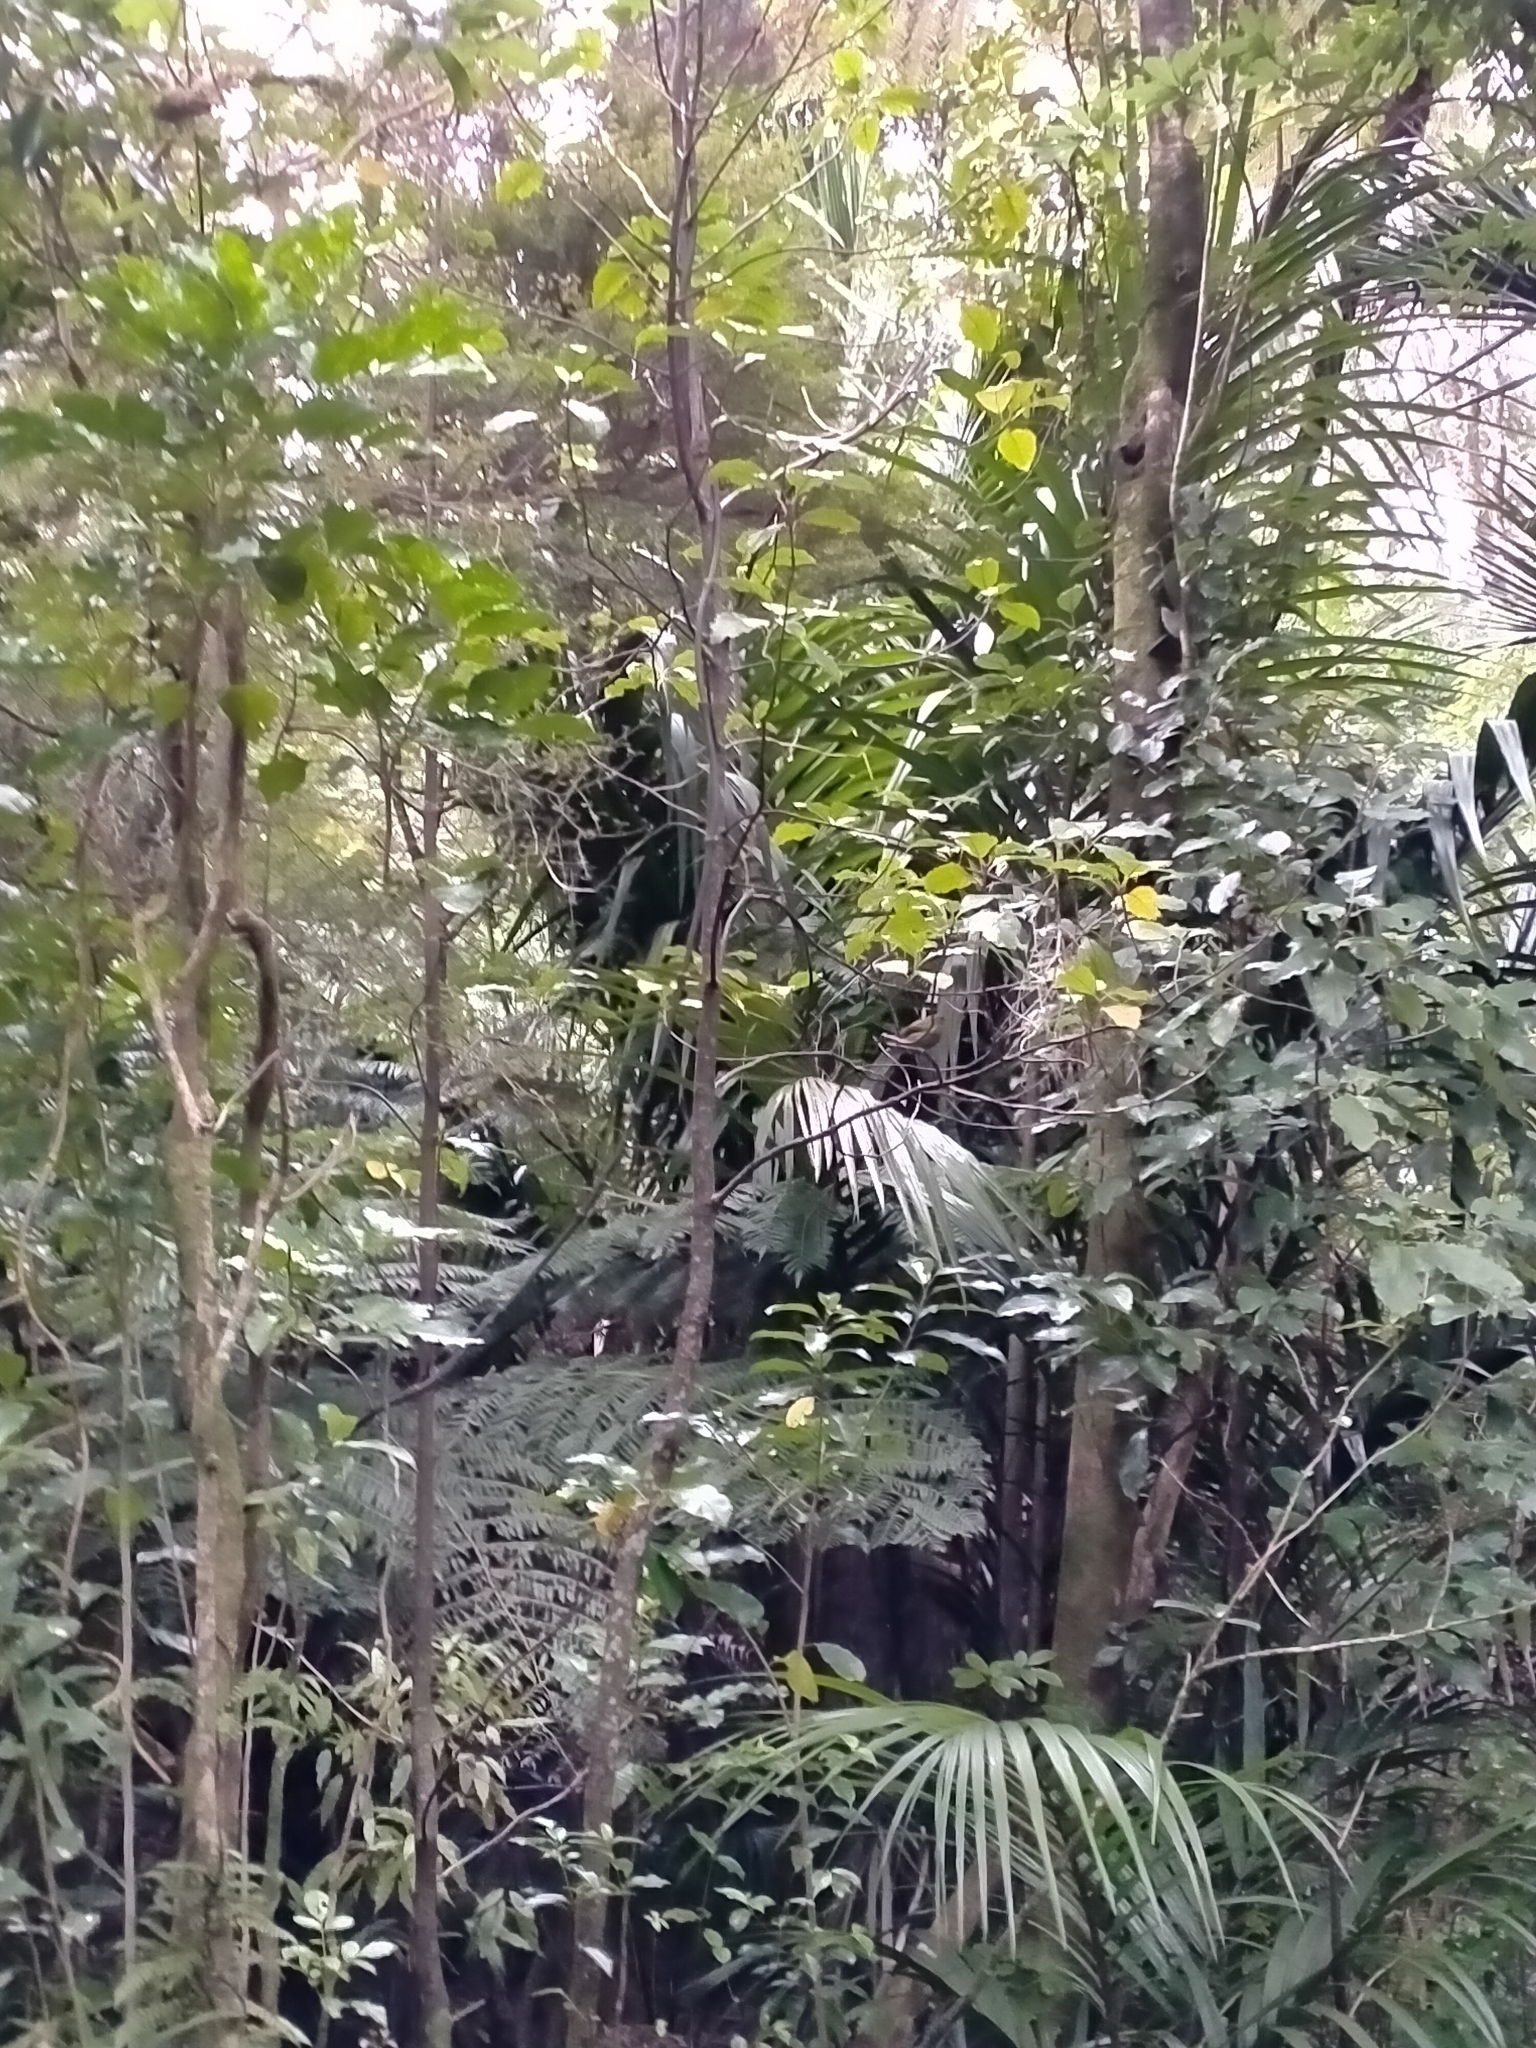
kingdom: Animalia
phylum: Chordata
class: Aves
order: Passeriformes
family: Meliphagidae
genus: Anthornis
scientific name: Anthornis melanura
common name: New zealand bellbird
